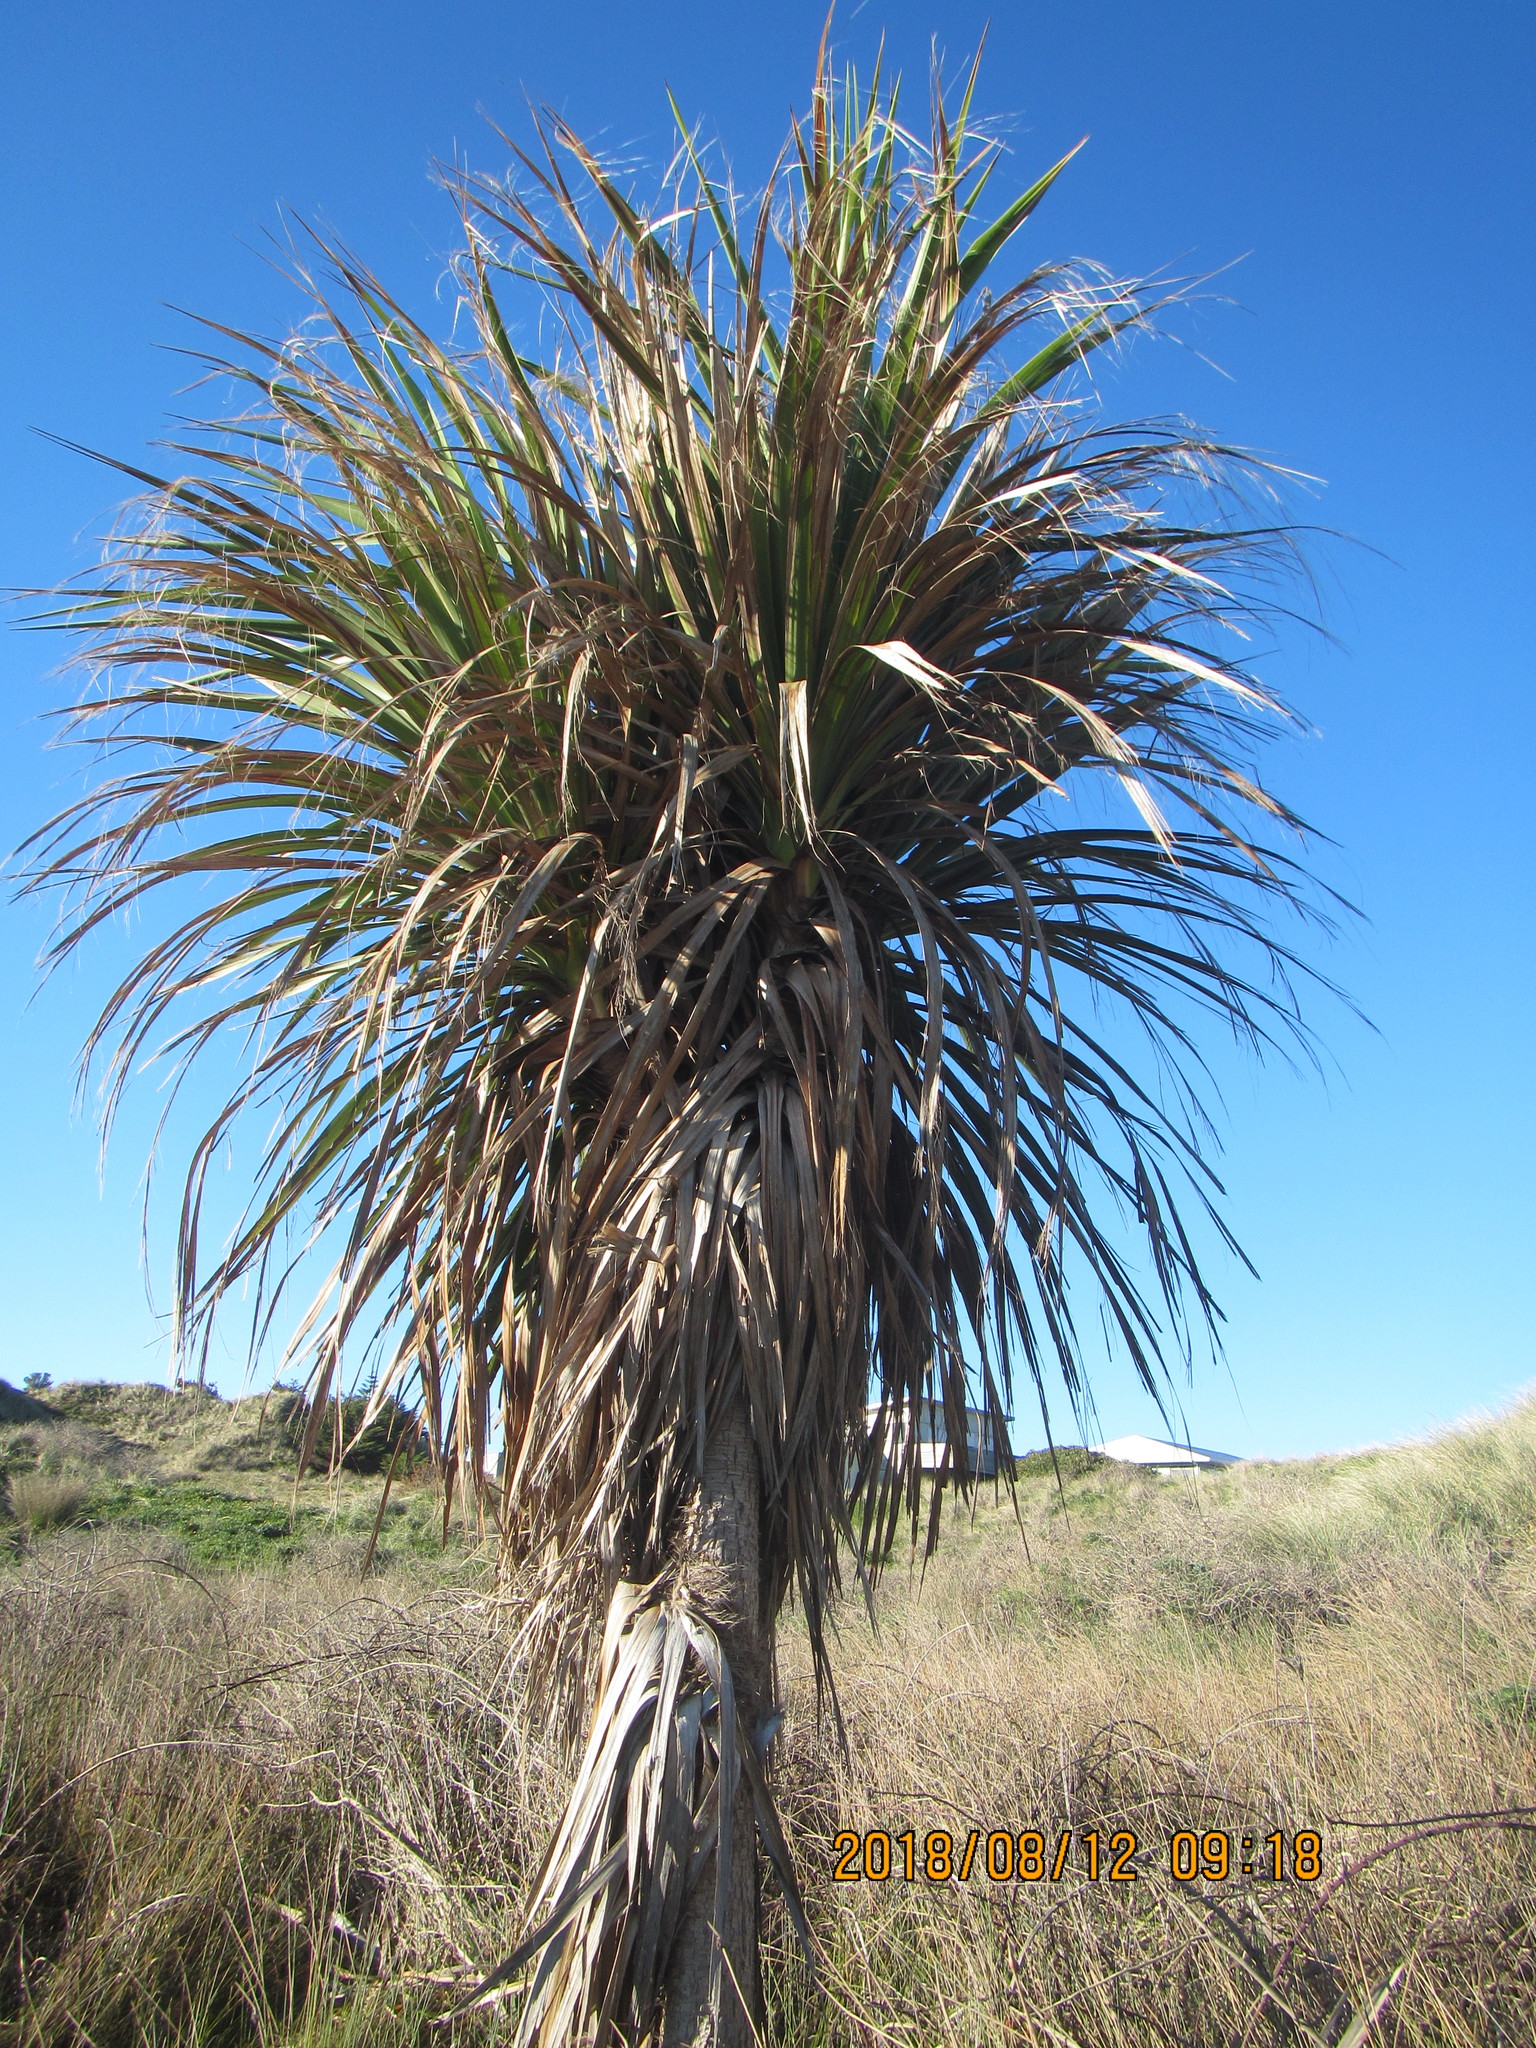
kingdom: Plantae
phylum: Tracheophyta
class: Liliopsida
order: Asparagales
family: Asparagaceae
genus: Cordyline
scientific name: Cordyline australis
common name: Cabbage-palm
